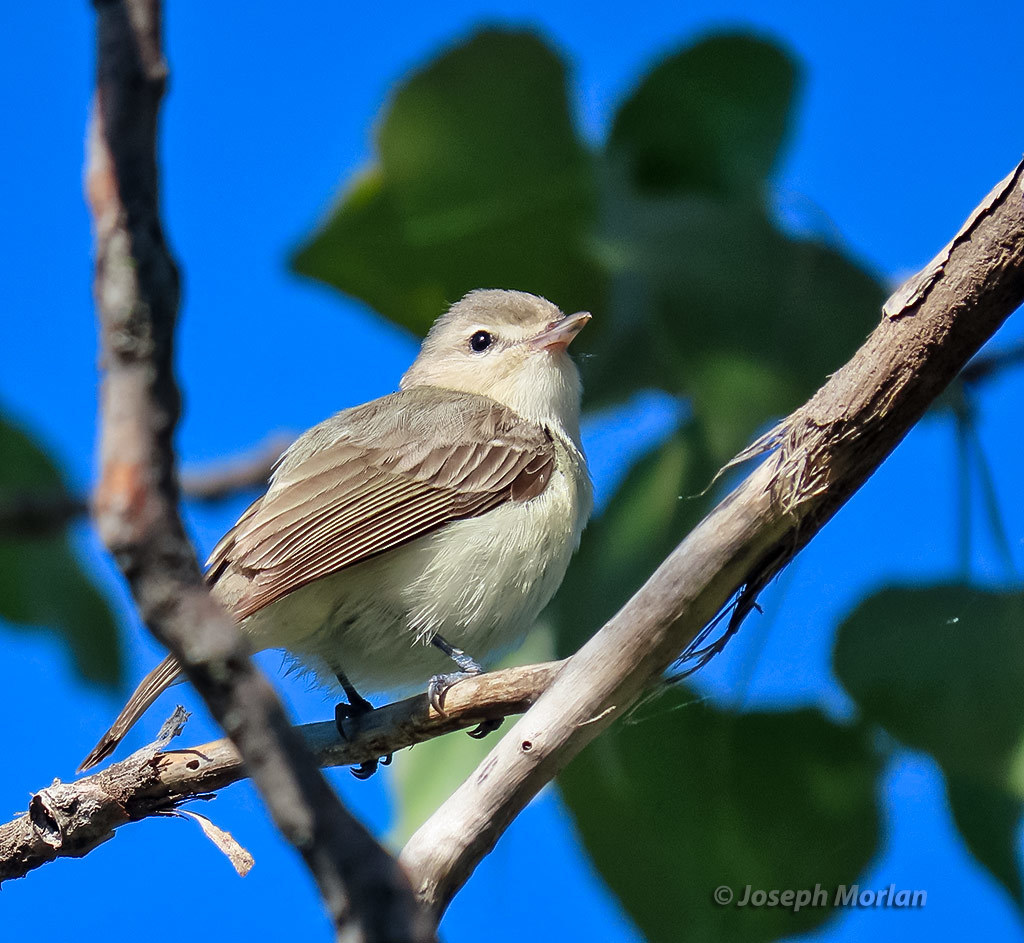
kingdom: Animalia
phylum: Chordata
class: Aves
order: Passeriformes
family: Vireonidae
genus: Vireo
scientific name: Vireo gilvus
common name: Warbling vireo
